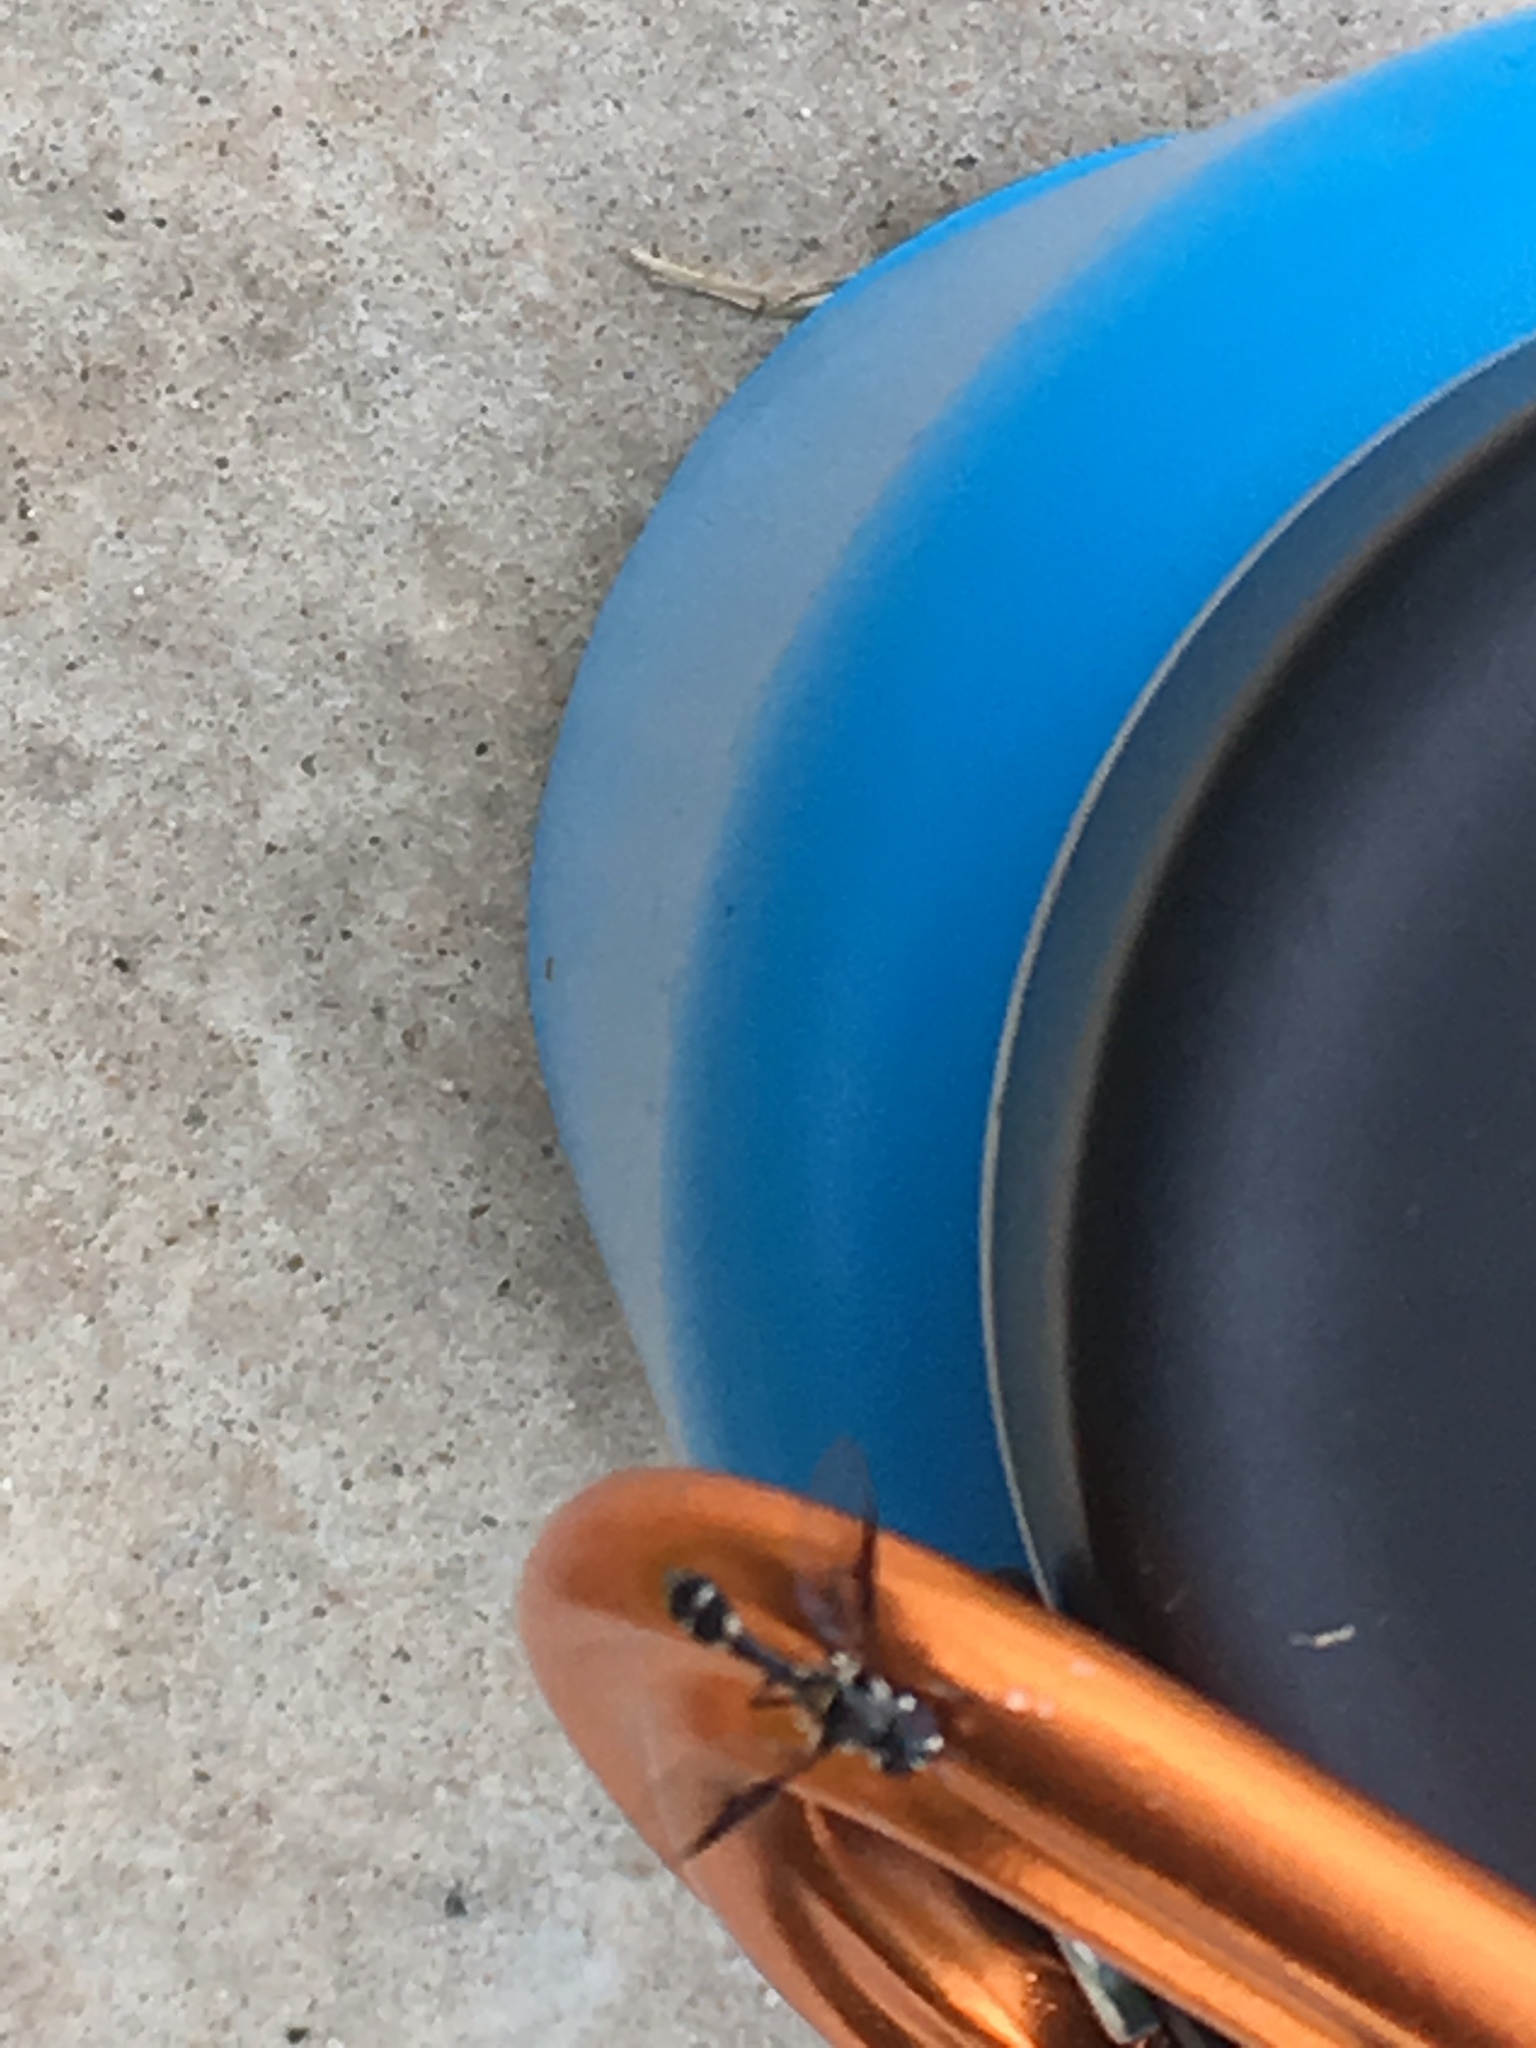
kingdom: Animalia
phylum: Arthropoda
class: Insecta
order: Diptera
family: Syrphidae
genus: Dioprosopa
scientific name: Dioprosopa clavatus
